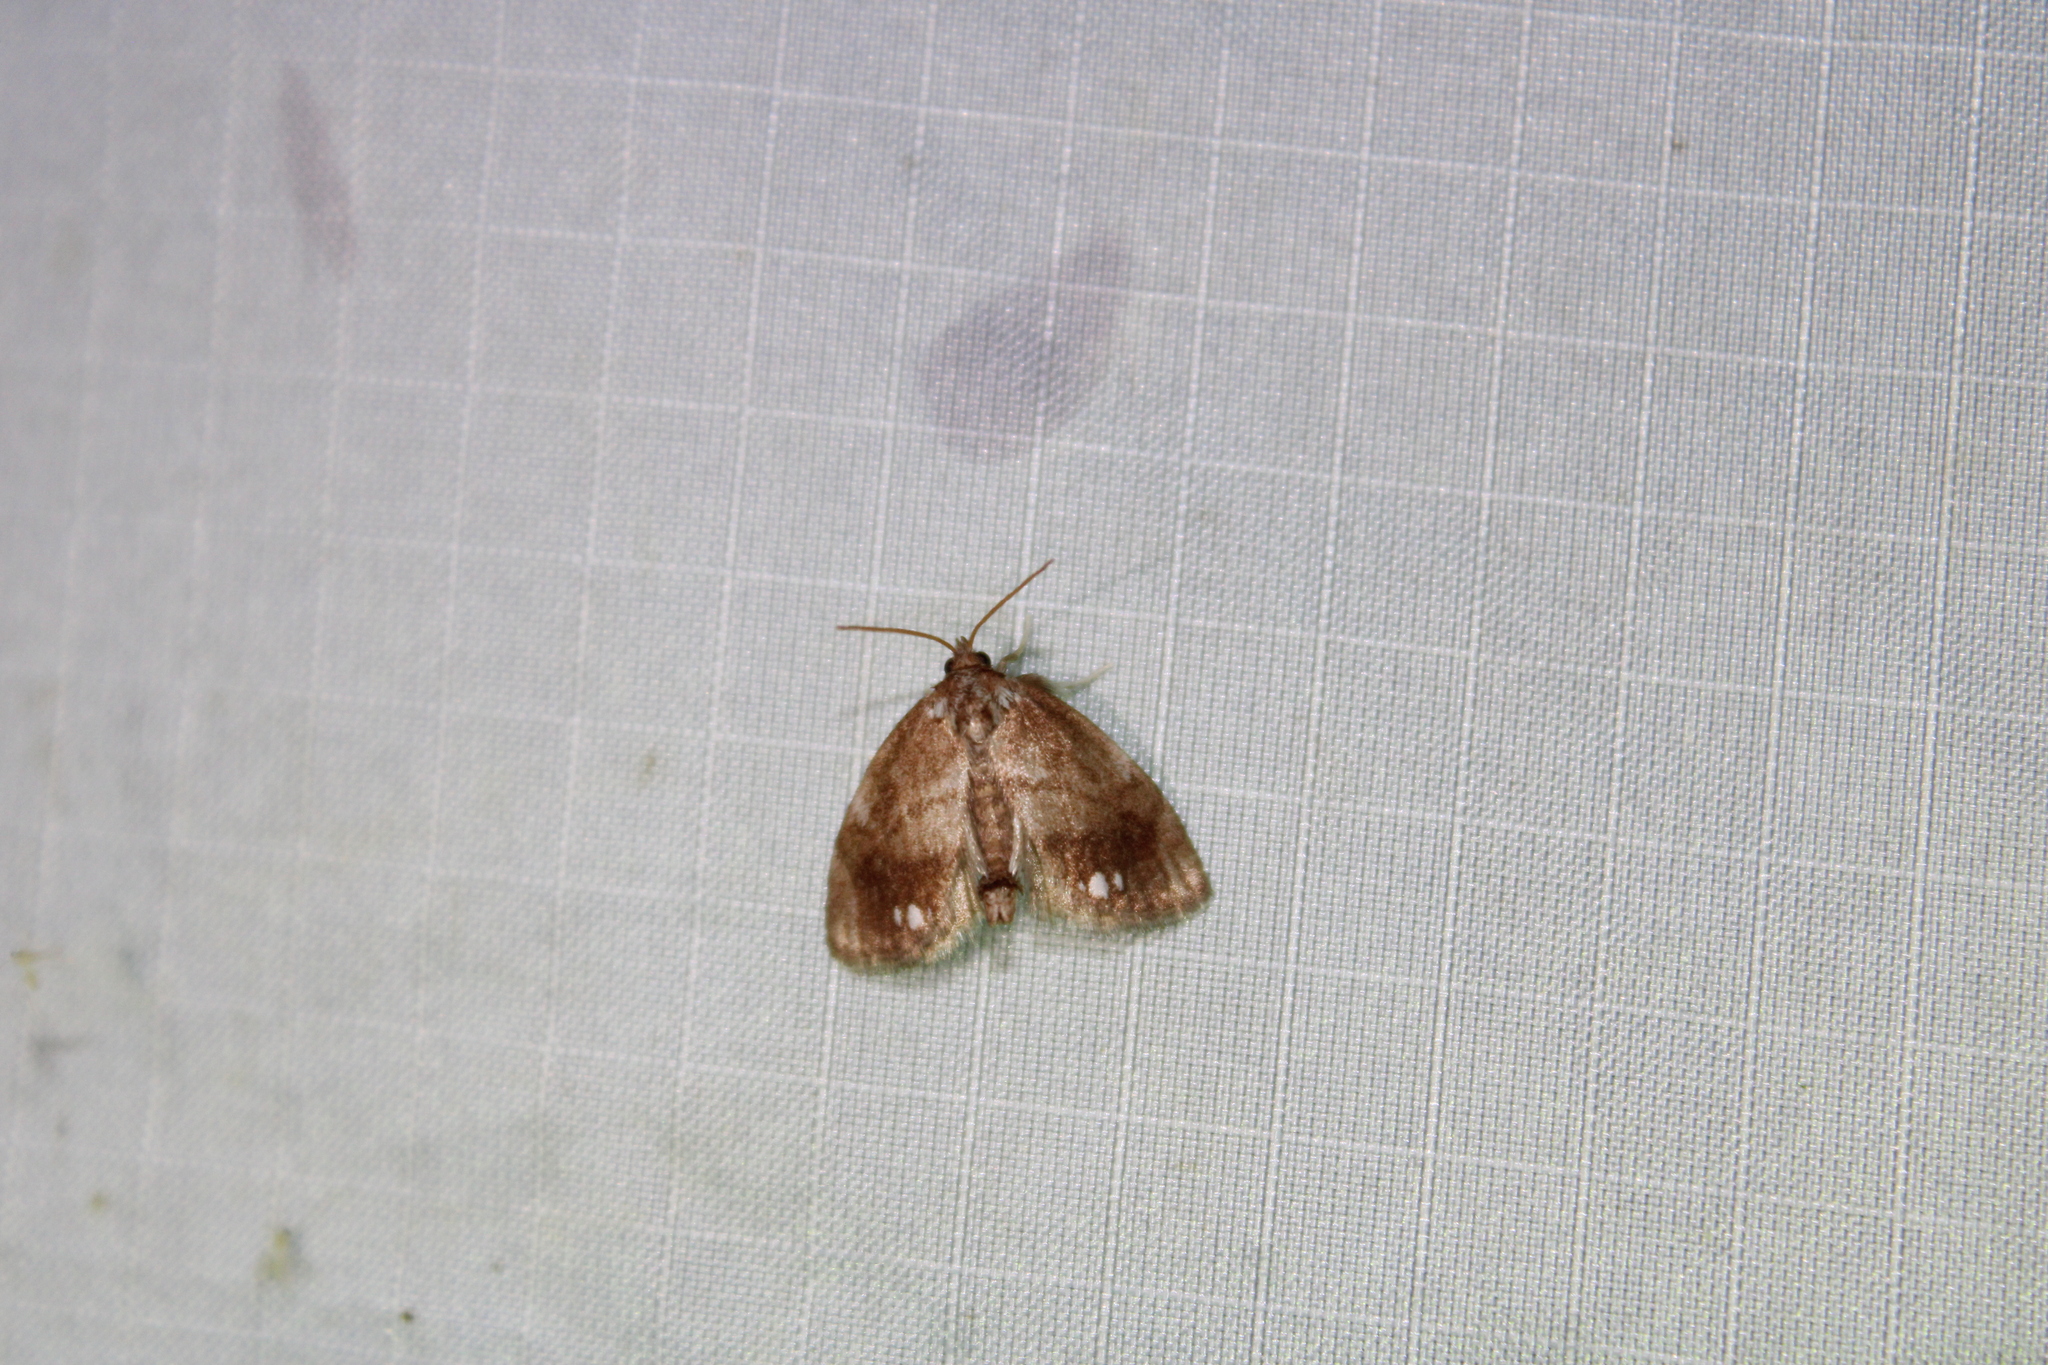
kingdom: Animalia
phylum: Arthropoda
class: Insecta
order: Lepidoptera
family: Limacodidae
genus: Packardia
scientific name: Packardia geminata
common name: Jeweled tailed slug moth
